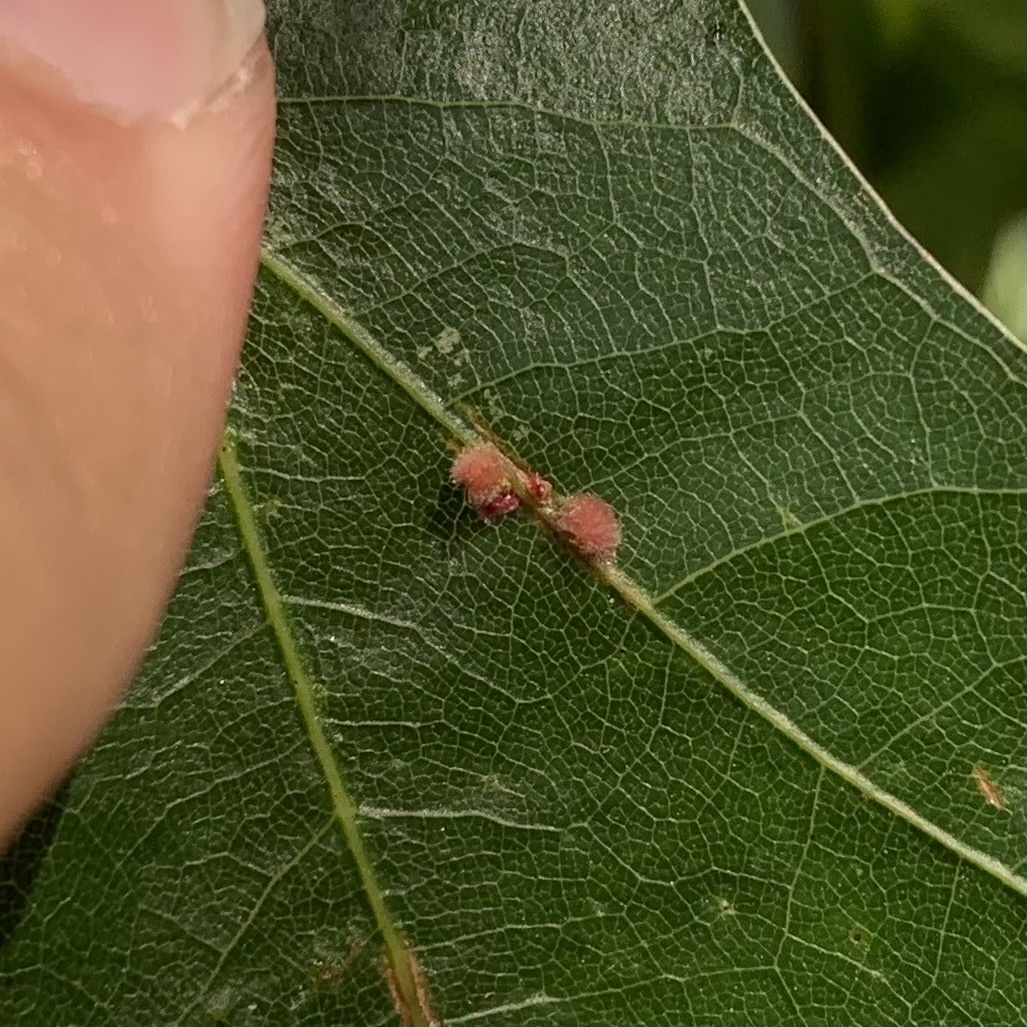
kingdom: Animalia
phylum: Arthropoda
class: Insecta
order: Hymenoptera
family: Cynipidae
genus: Callirhytis
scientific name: Callirhytis
